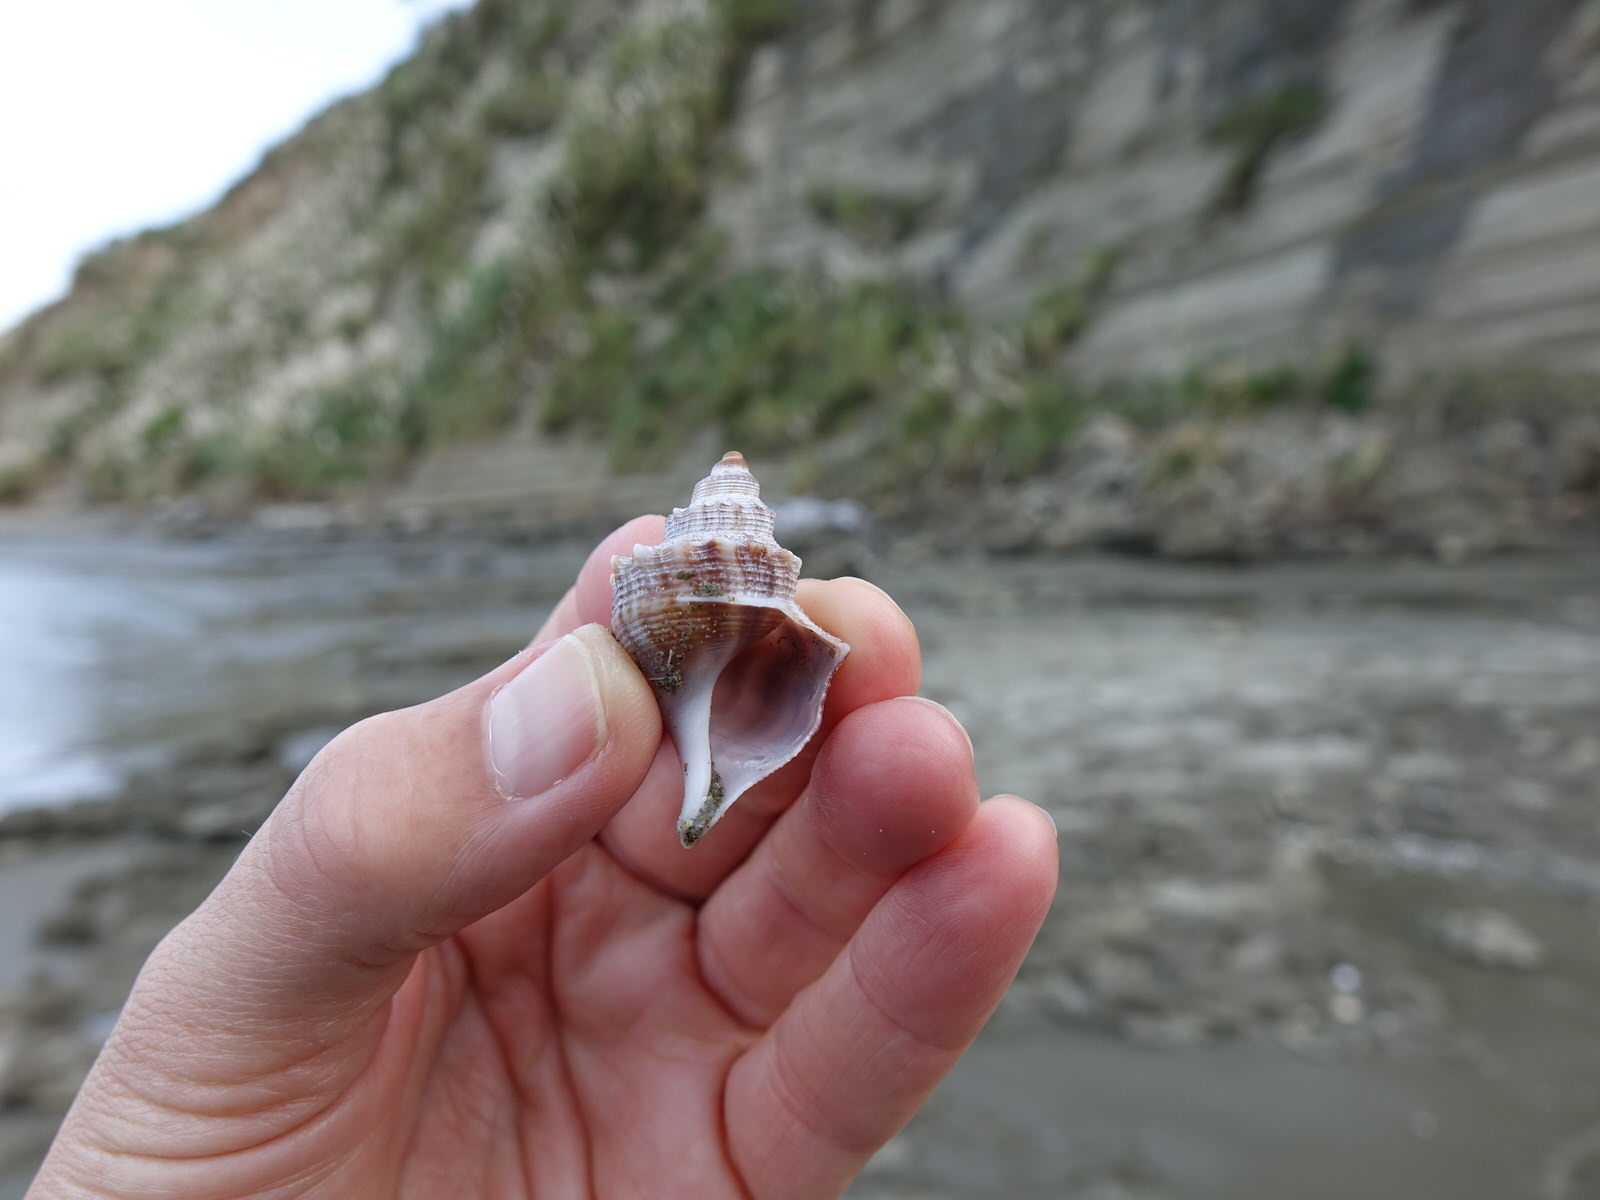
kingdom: Animalia
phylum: Mollusca
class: Gastropoda
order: Littorinimorpha
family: Struthiolariidae
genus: Struthiolaria
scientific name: Struthiolaria papulosa
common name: Large ostrich foot
